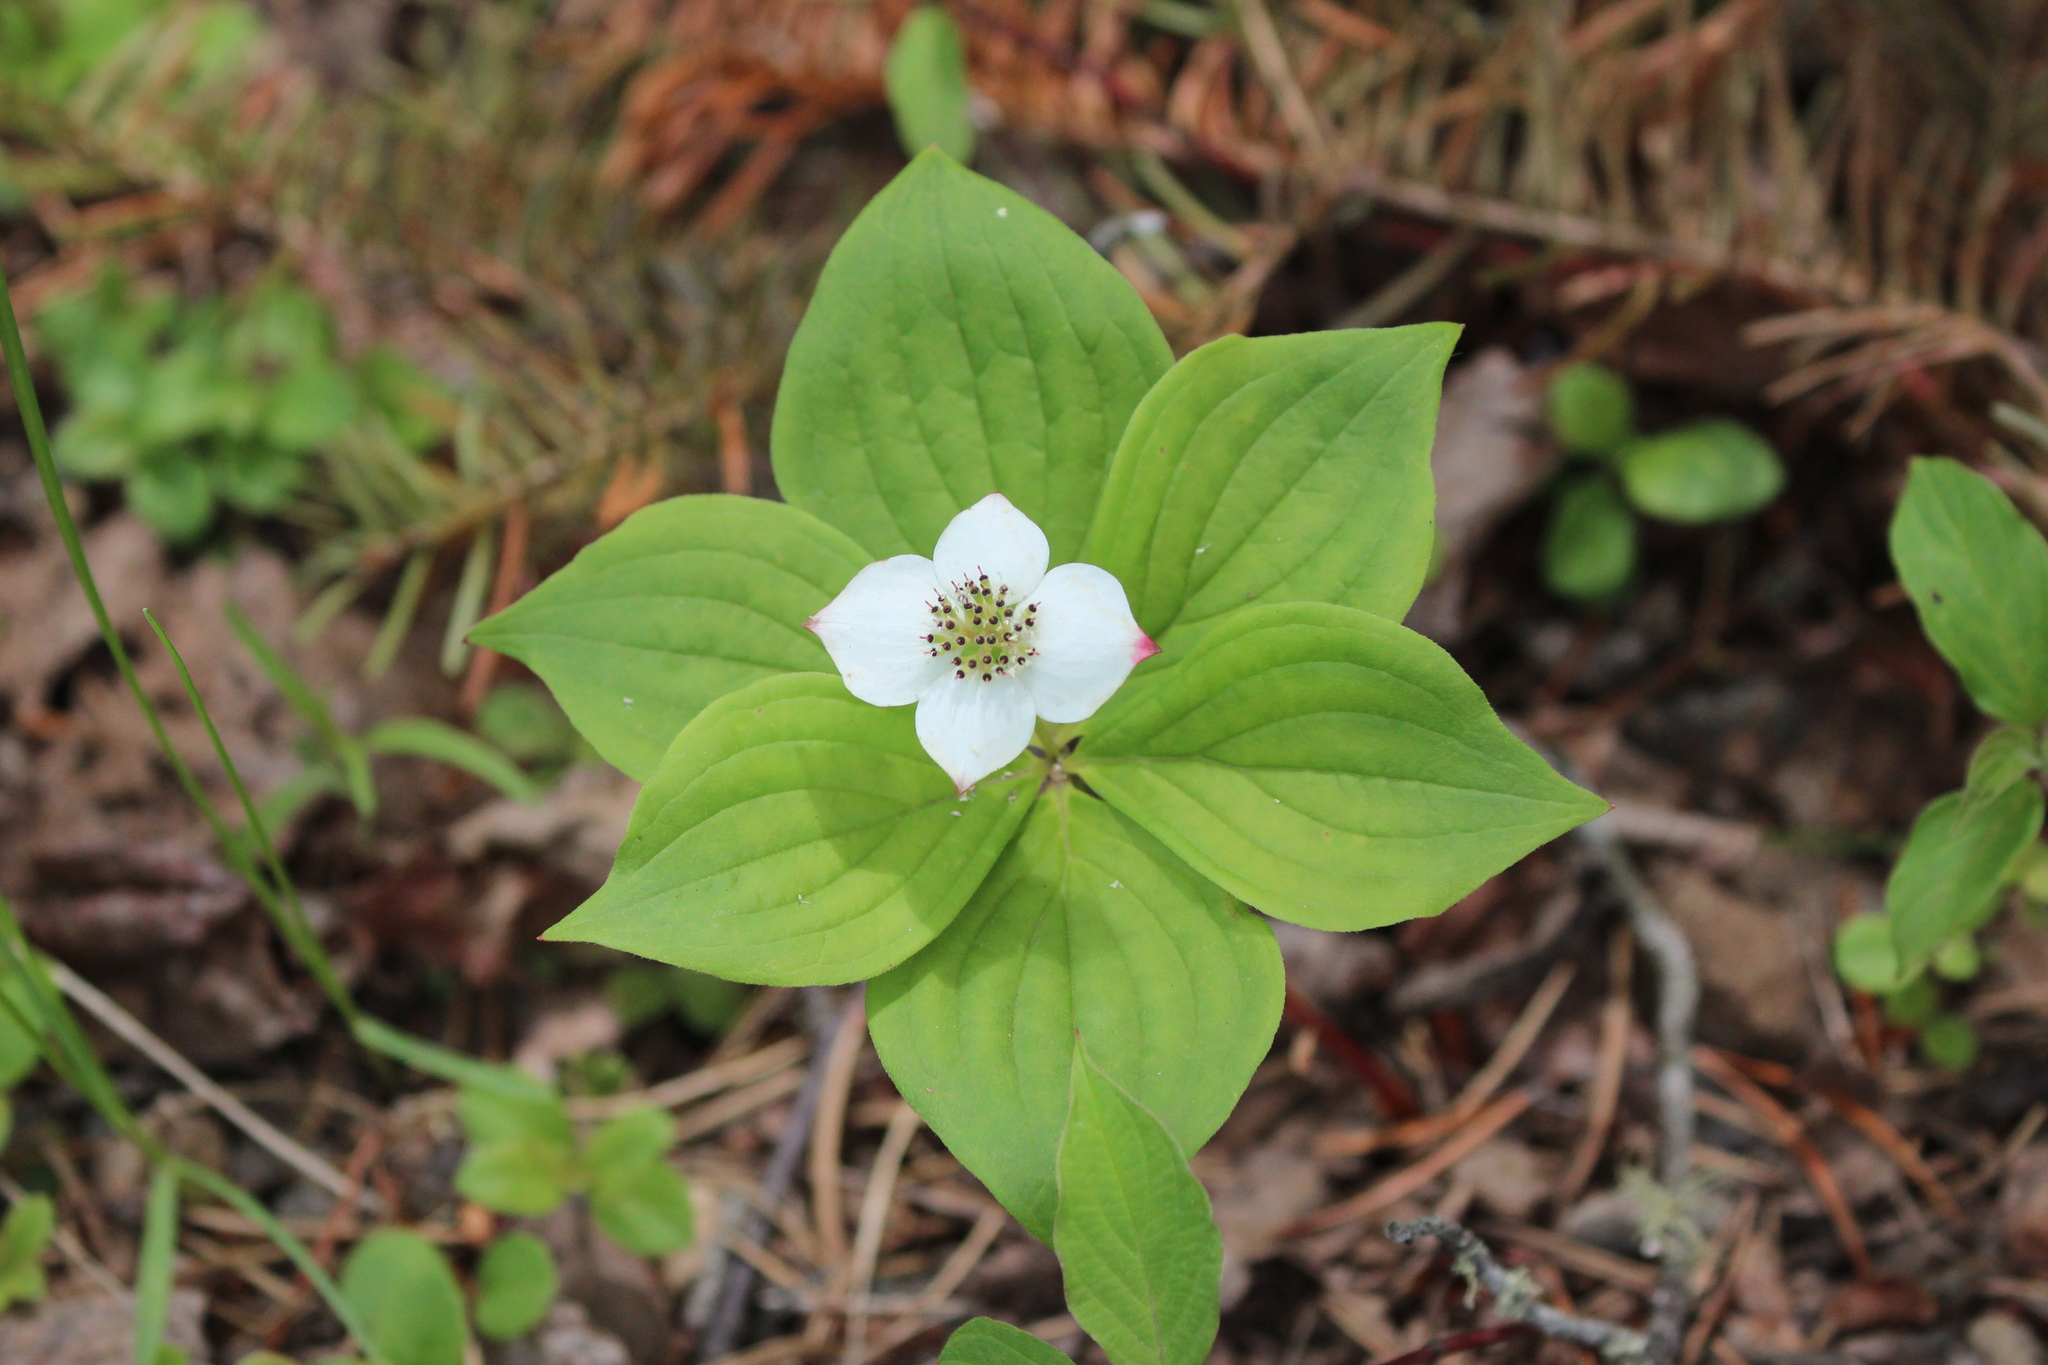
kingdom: Plantae
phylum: Tracheophyta
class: Magnoliopsida
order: Cornales
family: Cornaceae
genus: Cornus
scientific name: Cornus canadensis
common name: Creeping dogwood
